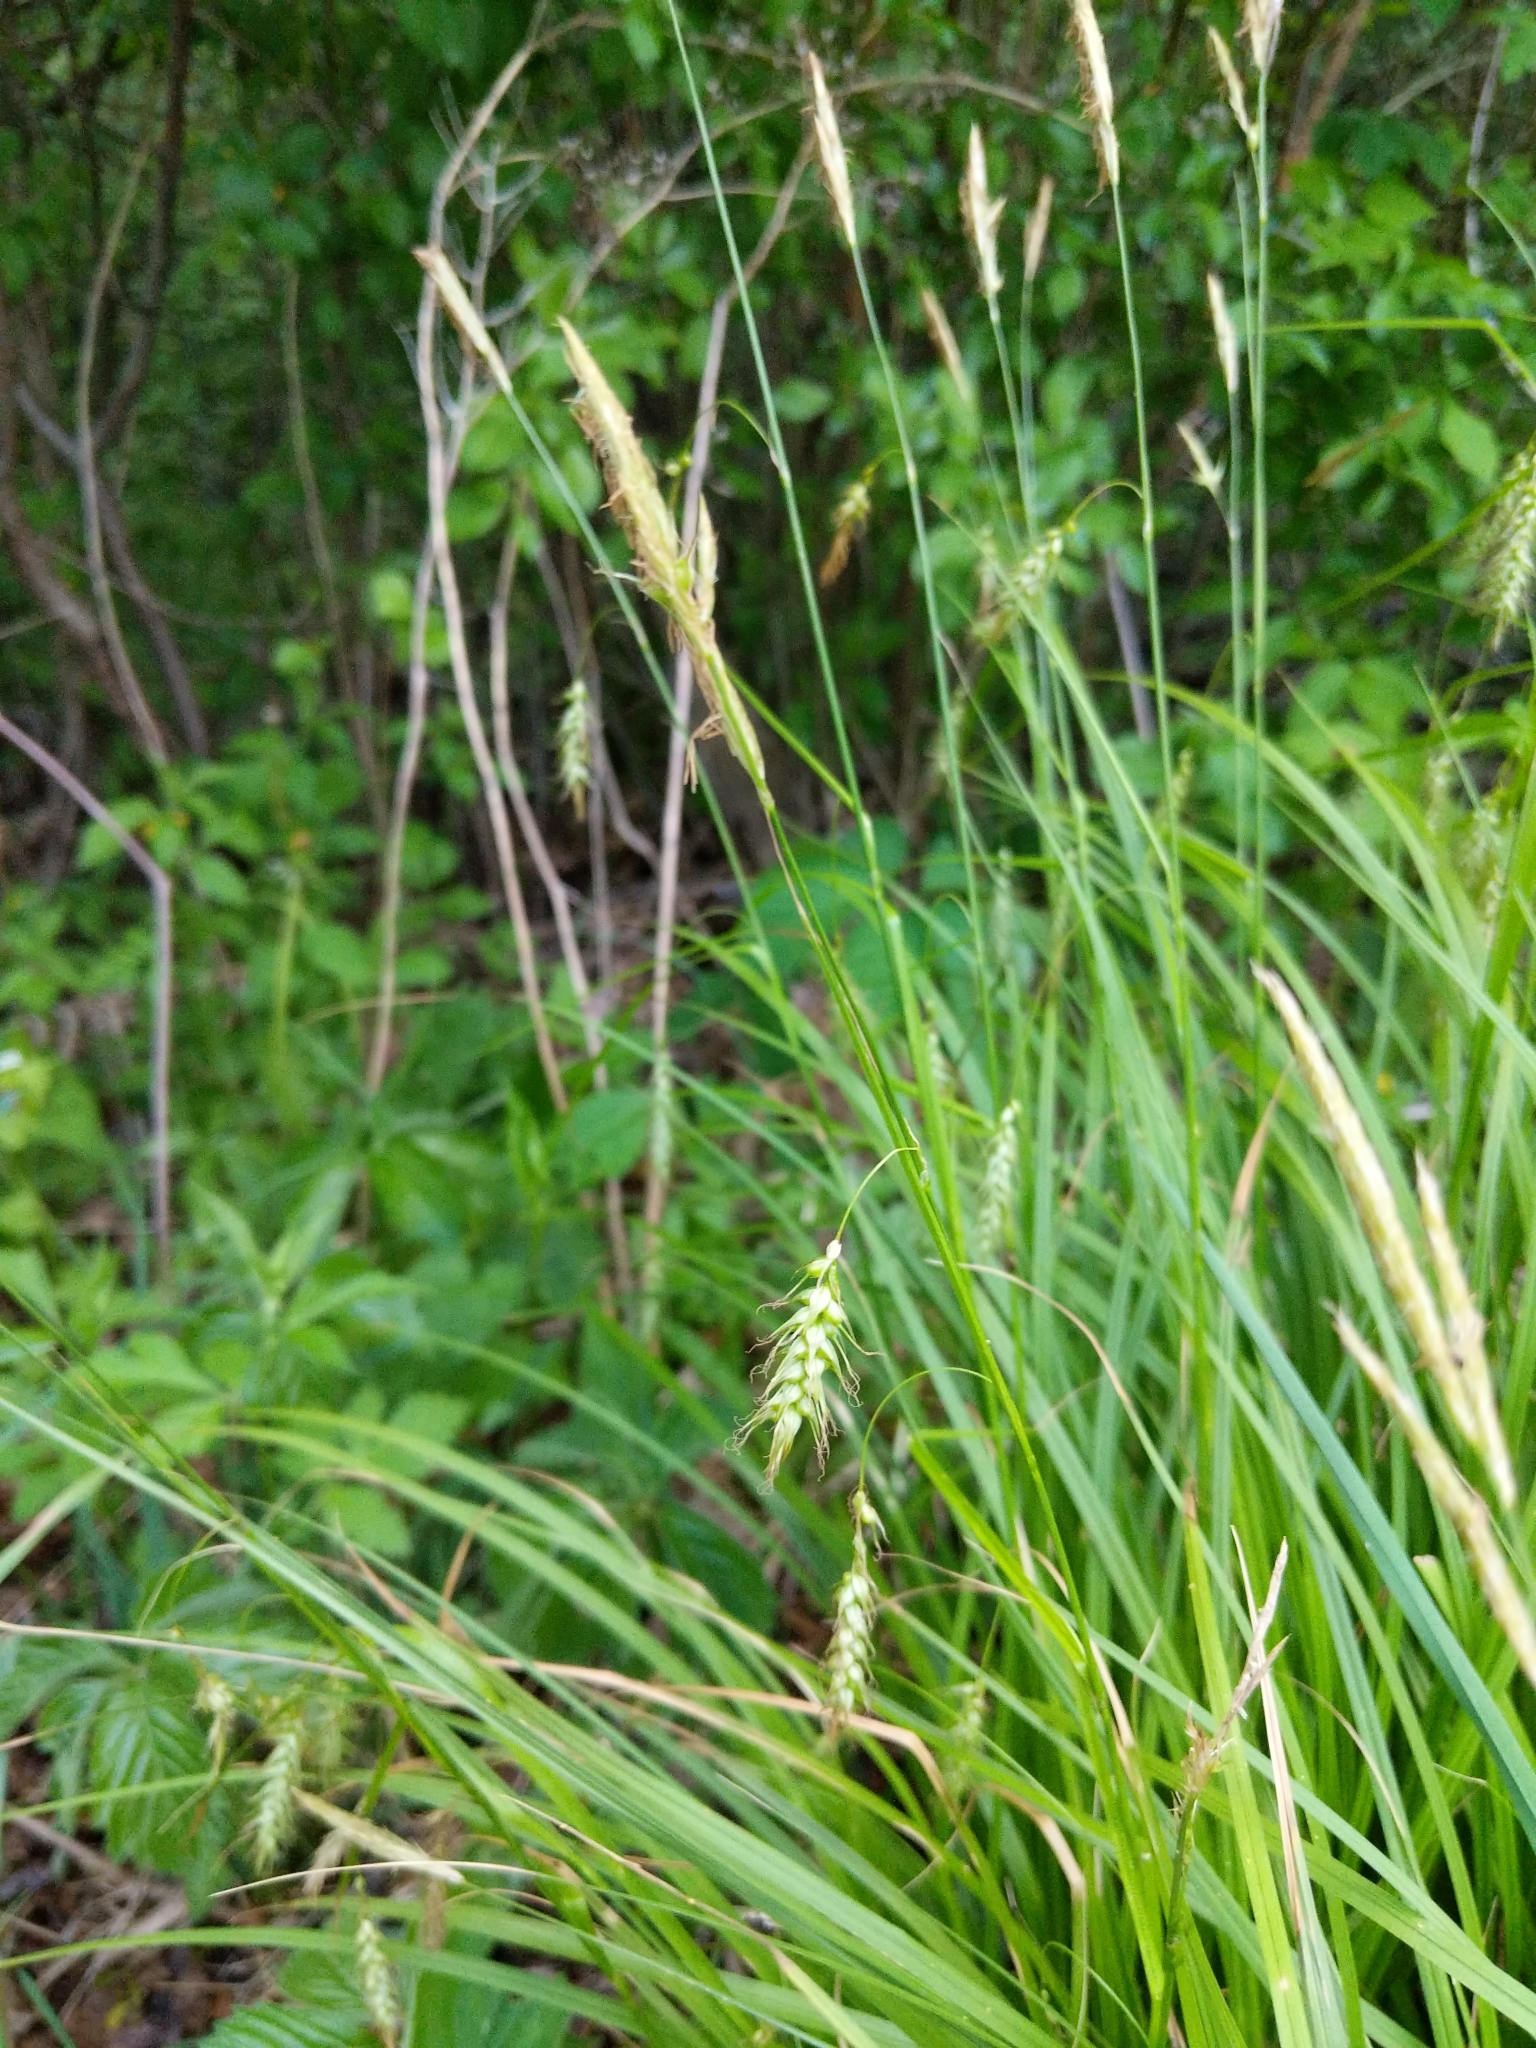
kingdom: Plantae
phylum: Tracheophyta
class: Liliopsida
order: Poales
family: Cyperaceae
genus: Carex
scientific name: Carex sprengelii
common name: Long-beaked sedge
